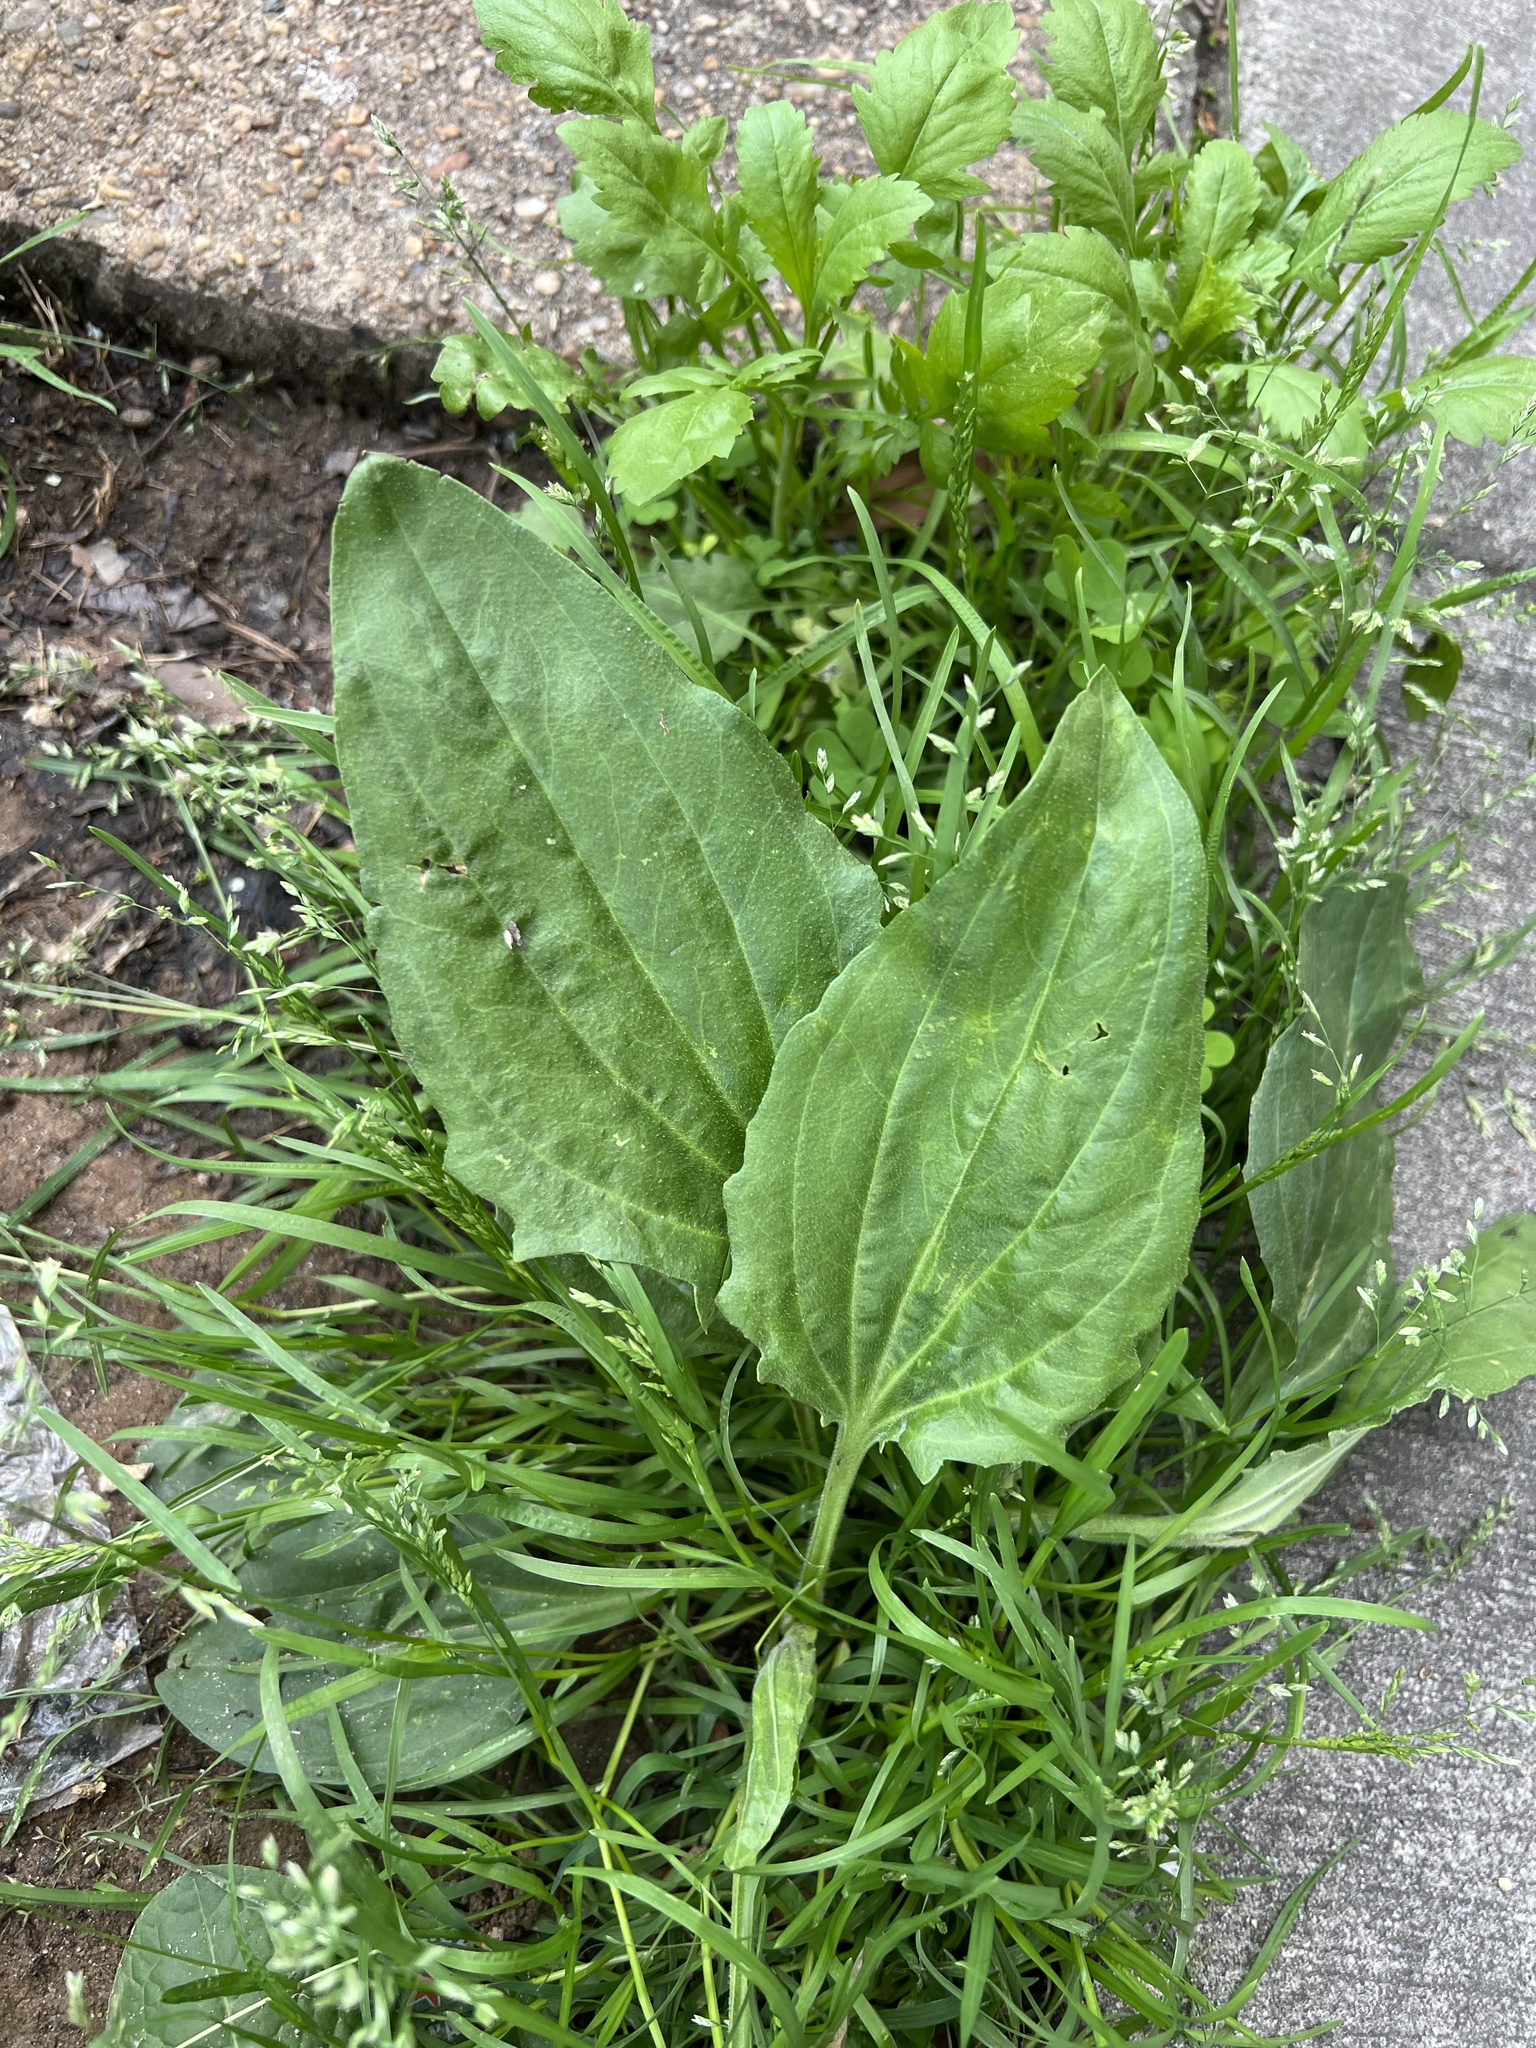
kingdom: Plantae
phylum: Tracheophyta
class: Magnoliopsida
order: Lamiales
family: Plantaginaceae
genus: Plantago
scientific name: Plantago major
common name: Common plantain
